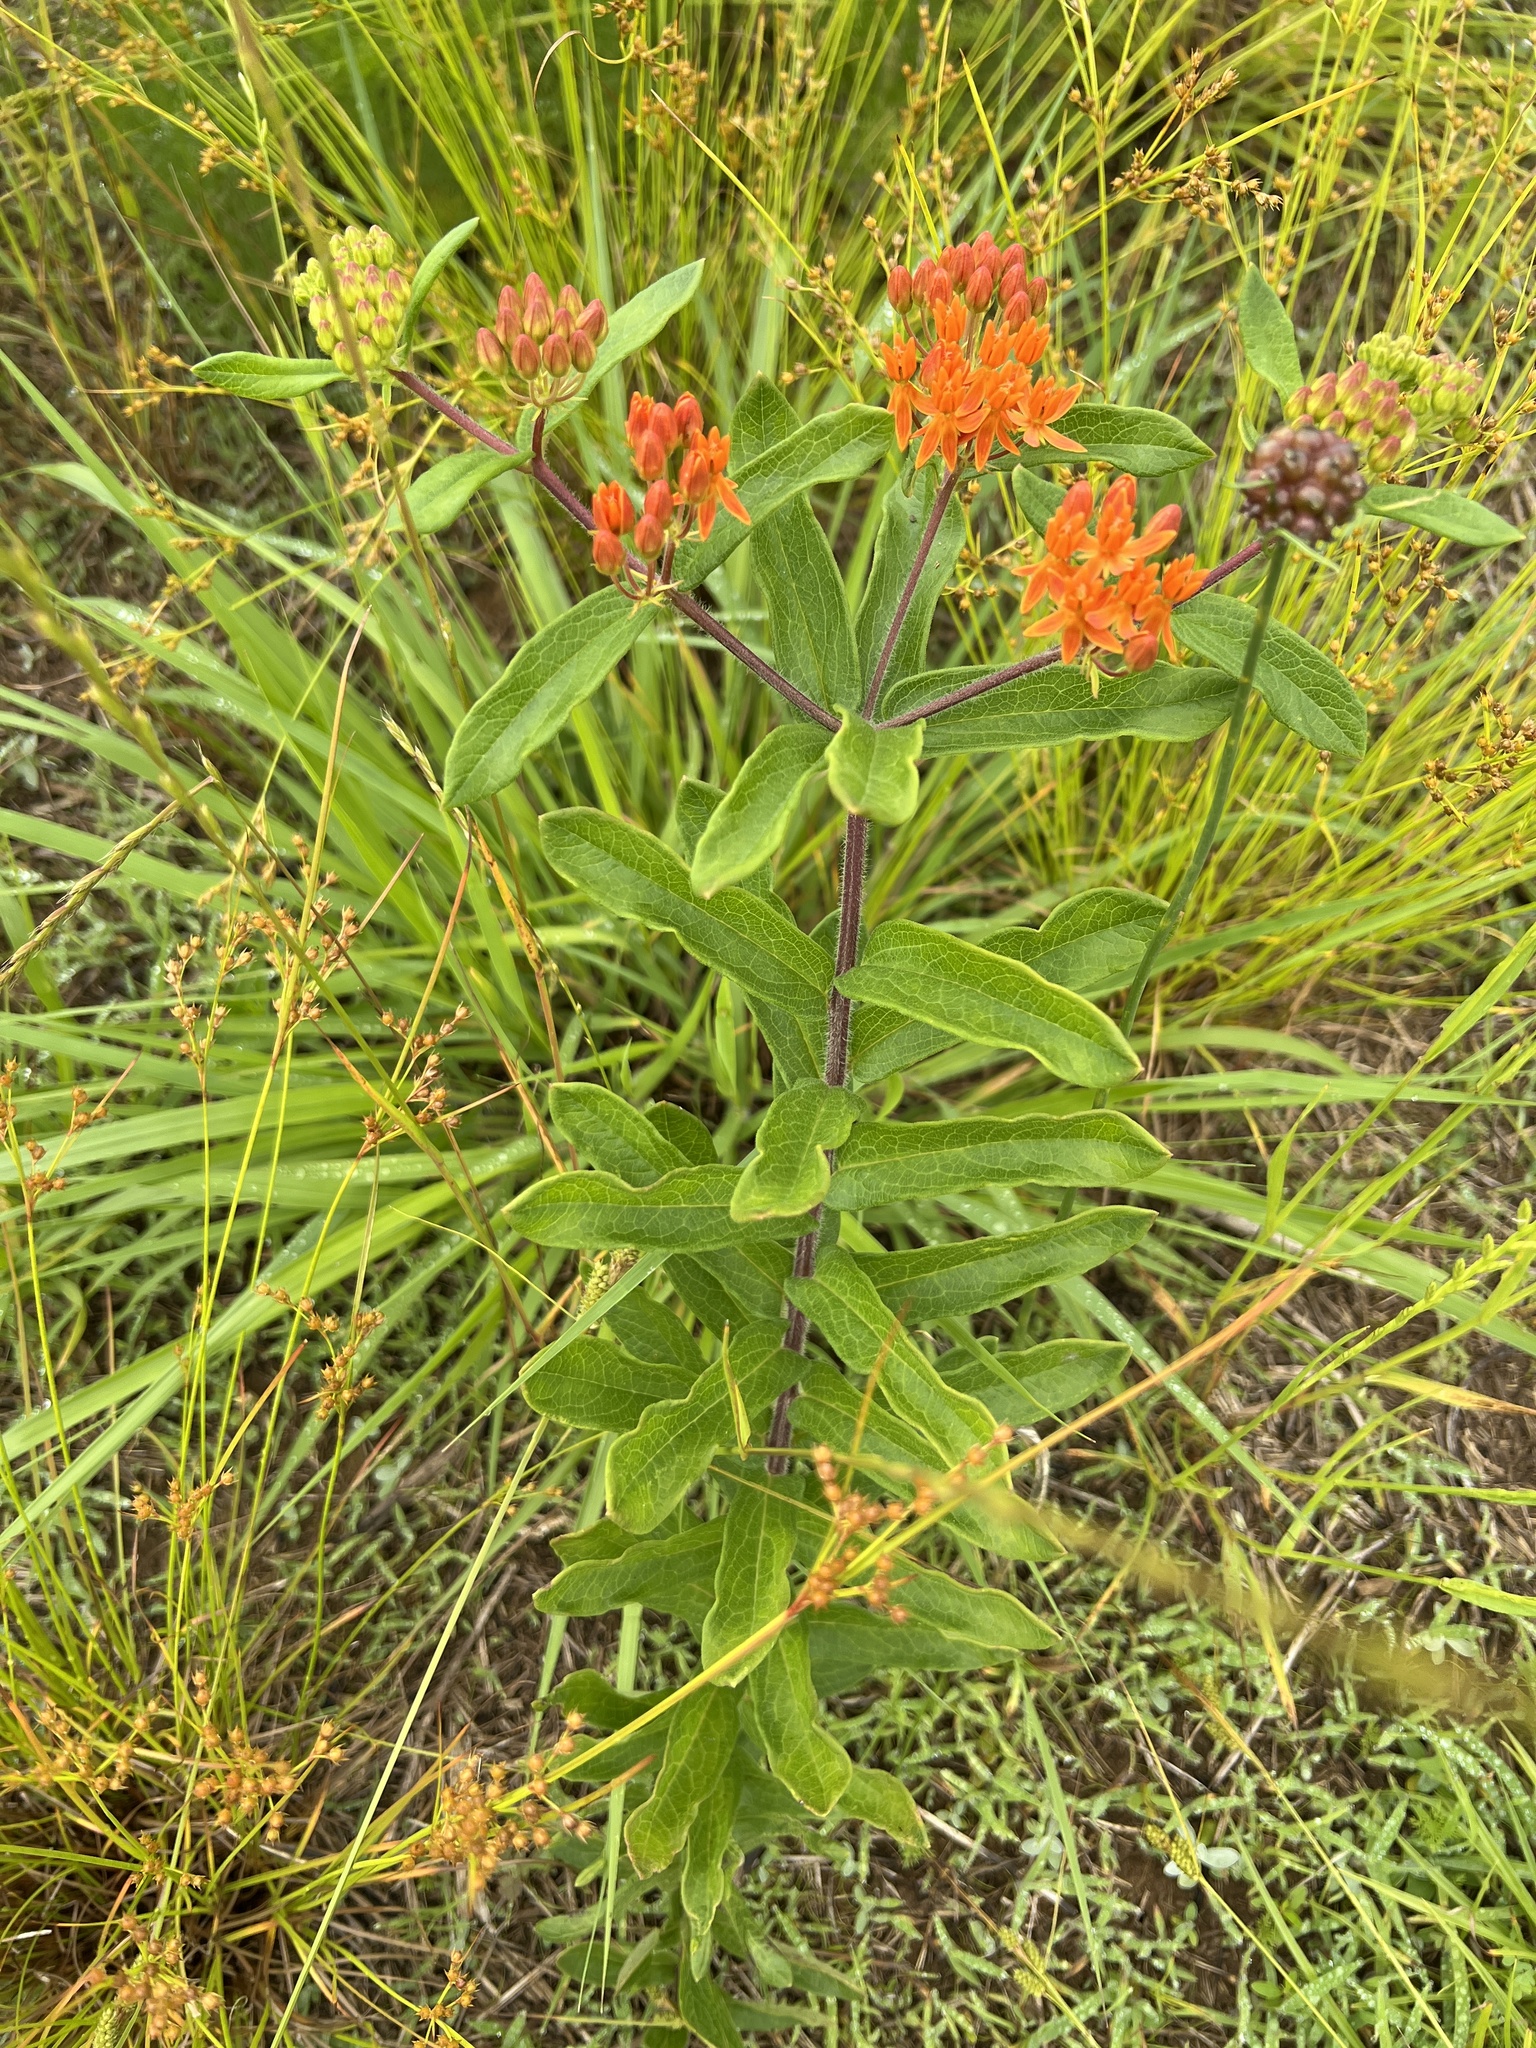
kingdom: Plantae
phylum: Tracheophyta
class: Magnoliopsida
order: Gentianales
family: Apocynaceae
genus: Asclepias
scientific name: Asclepias tuberosa
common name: Butterfly milkweed
